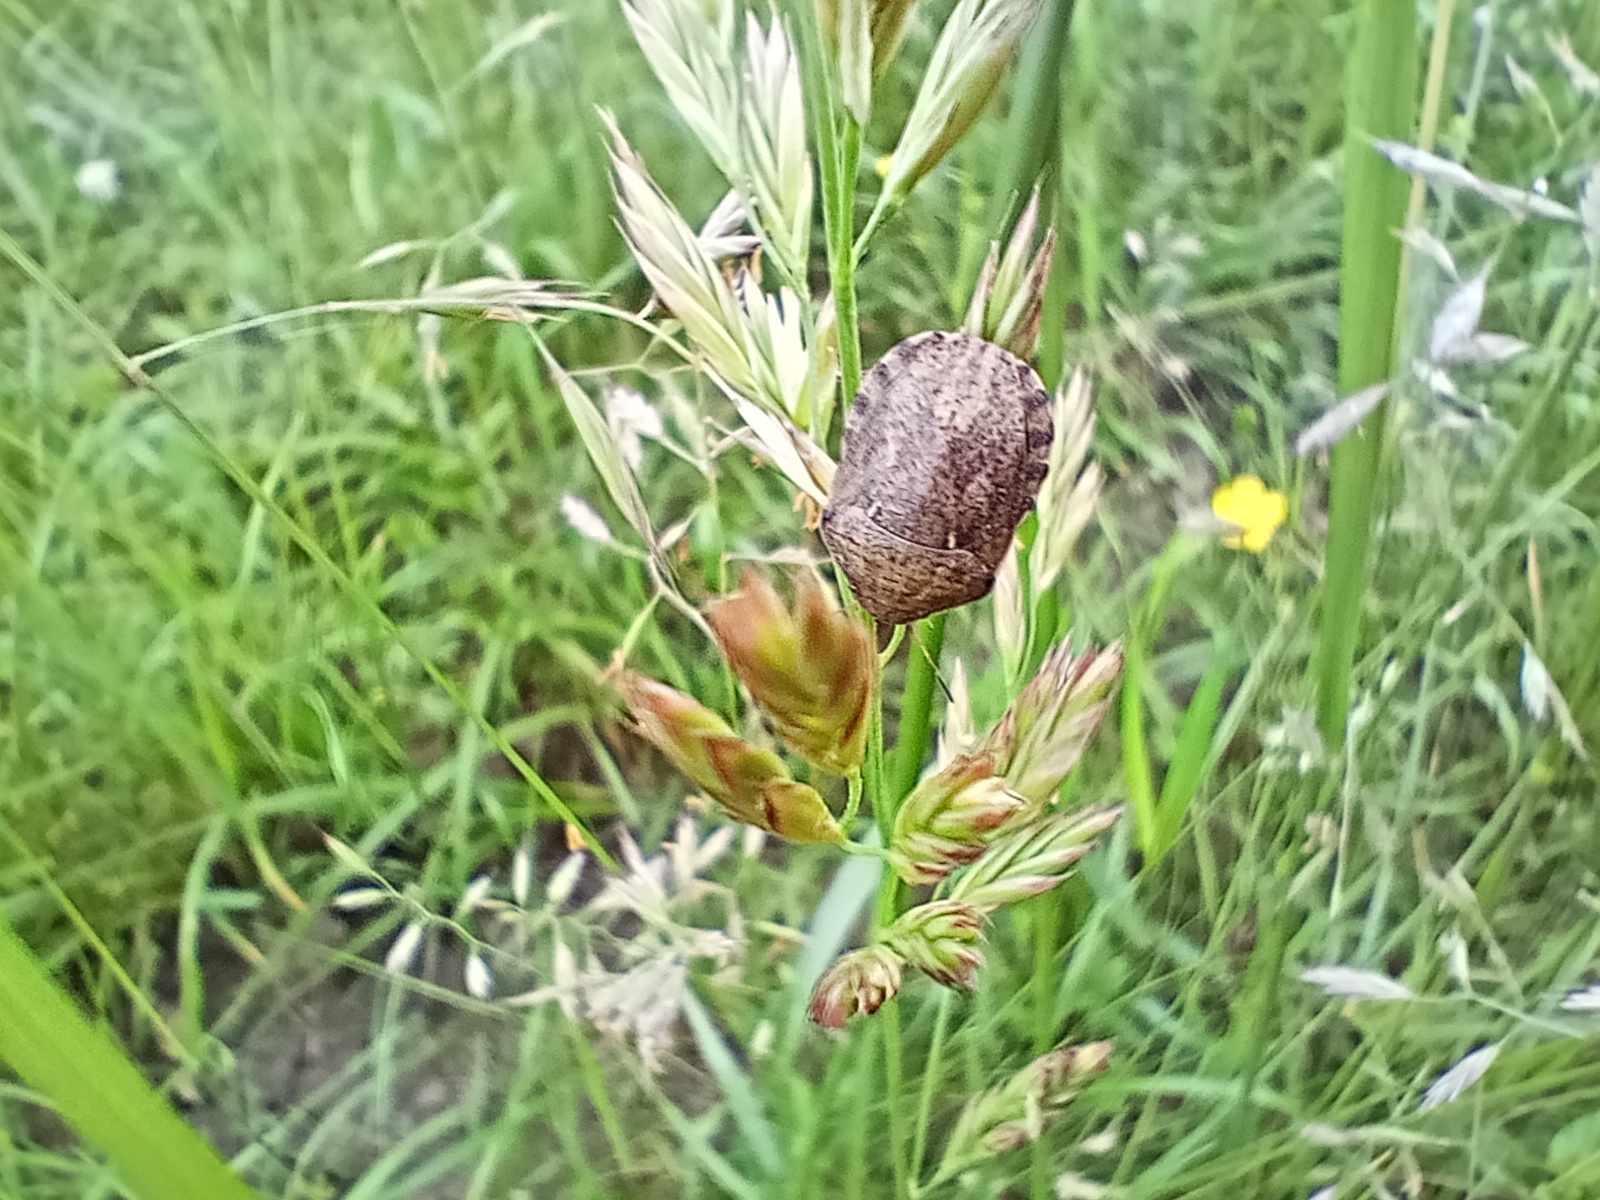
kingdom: Animalia
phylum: Arthropoda
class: Insecta
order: Hemiptera
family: Scutelleridae
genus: Eurygaster
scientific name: Eurygaster maura
